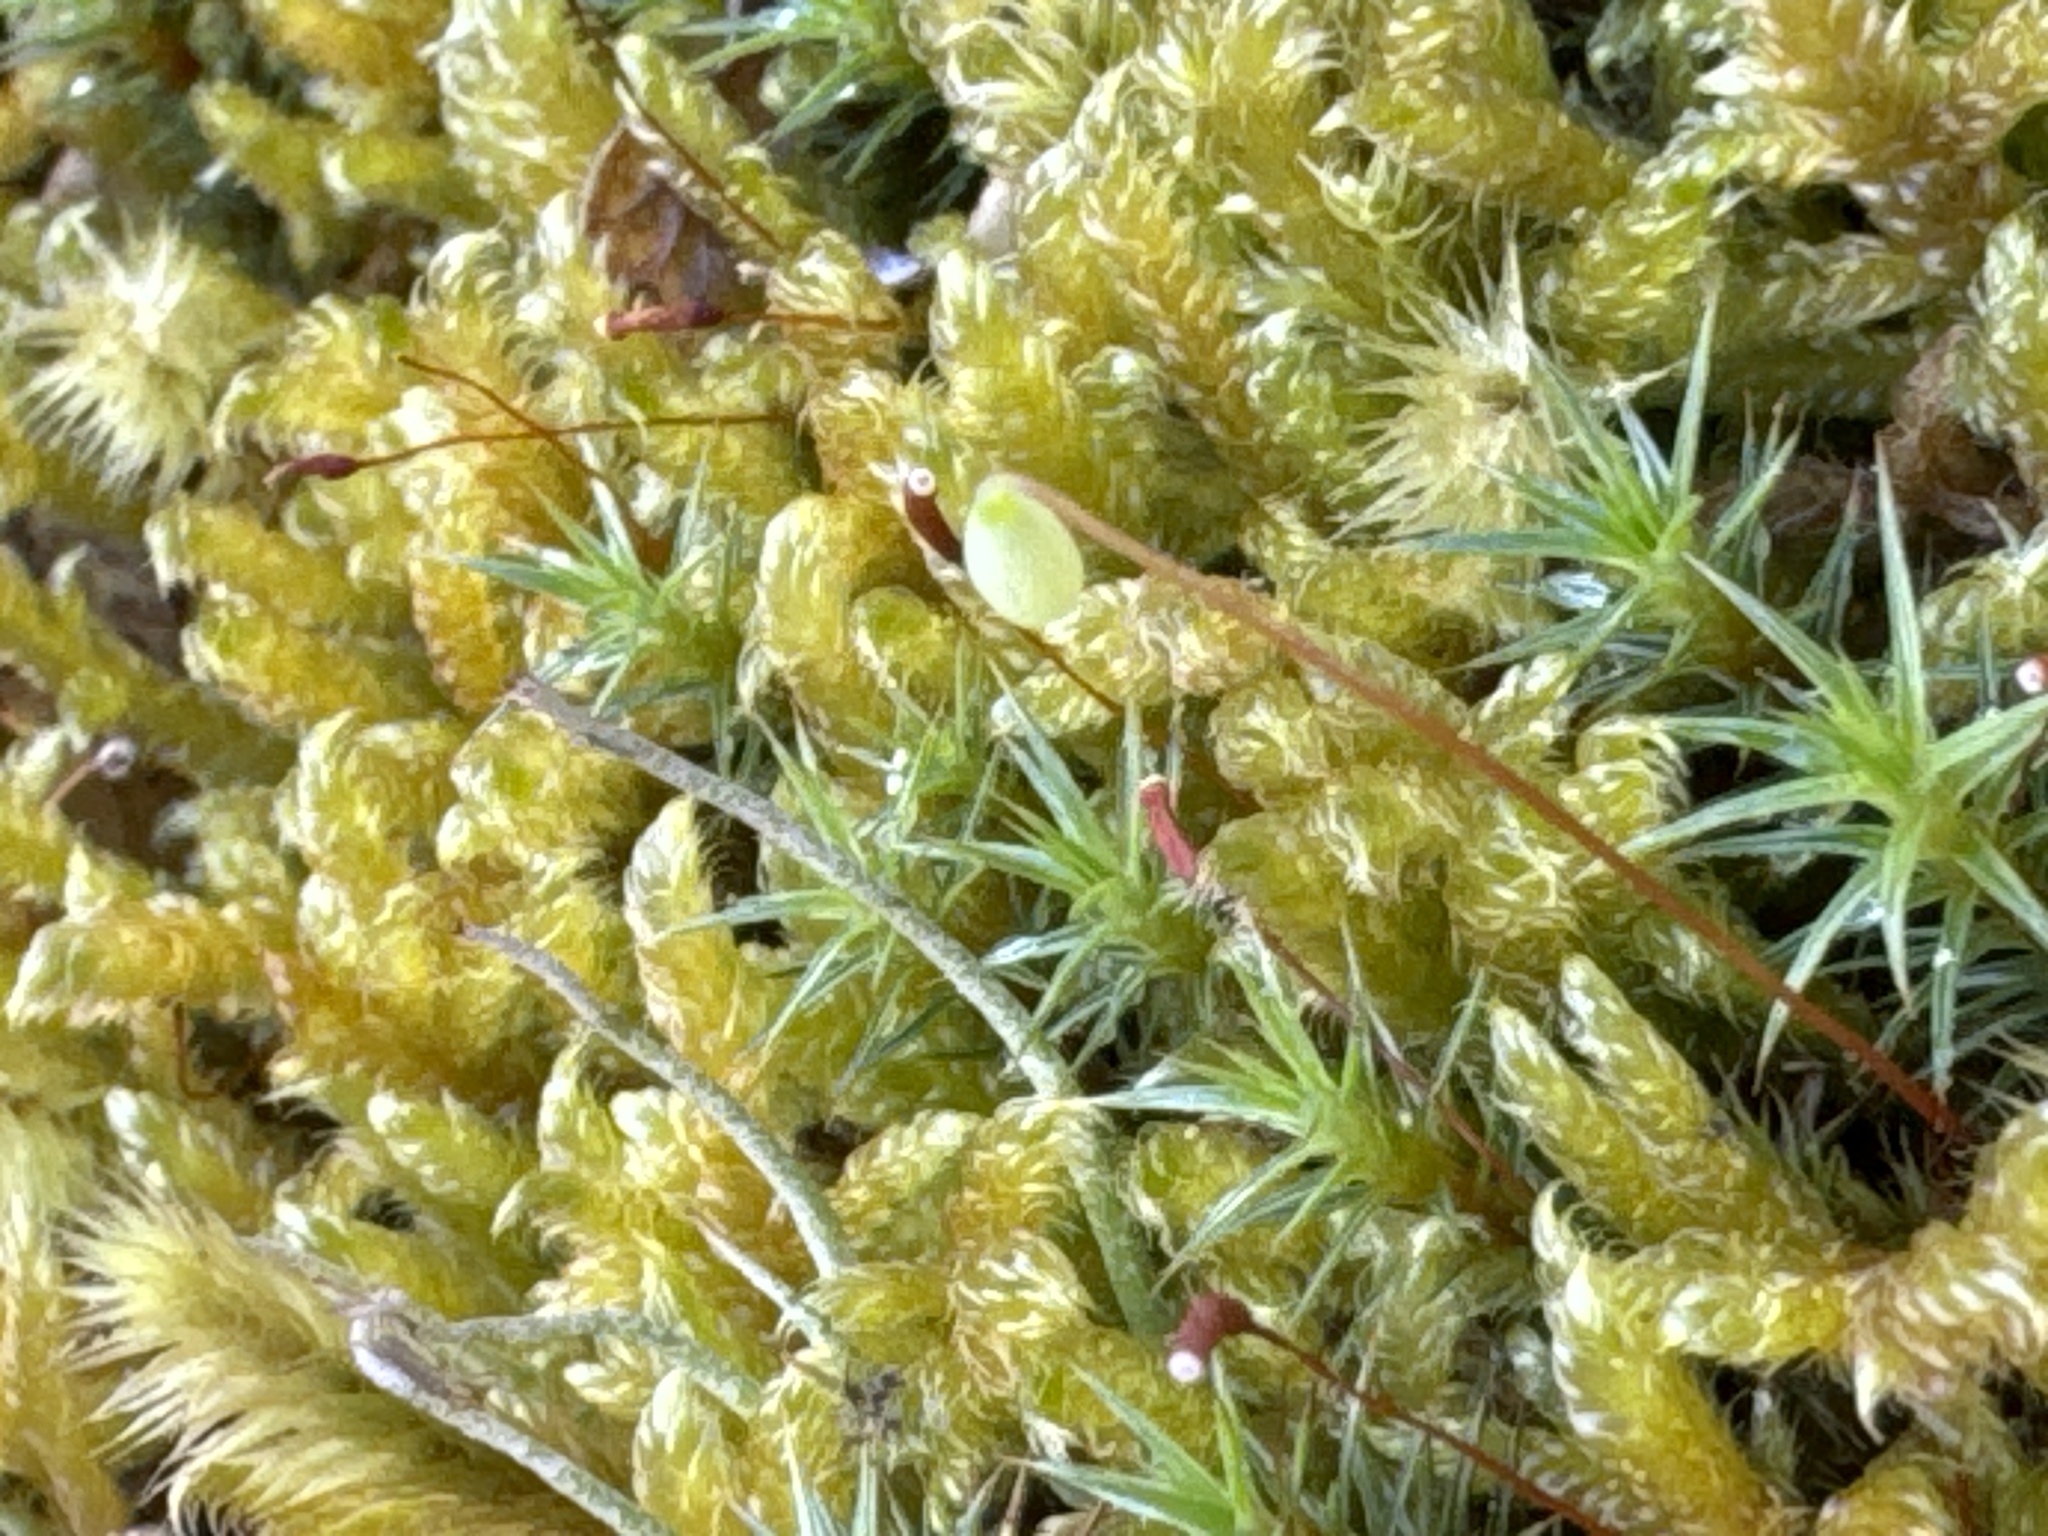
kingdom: Plantae
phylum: Bryophyta
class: Bryopsida
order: Hypnales
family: Hypnaceae
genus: Hypnum
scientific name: Hypnum cupressiforme
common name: Cypress-leaved plait-moss
